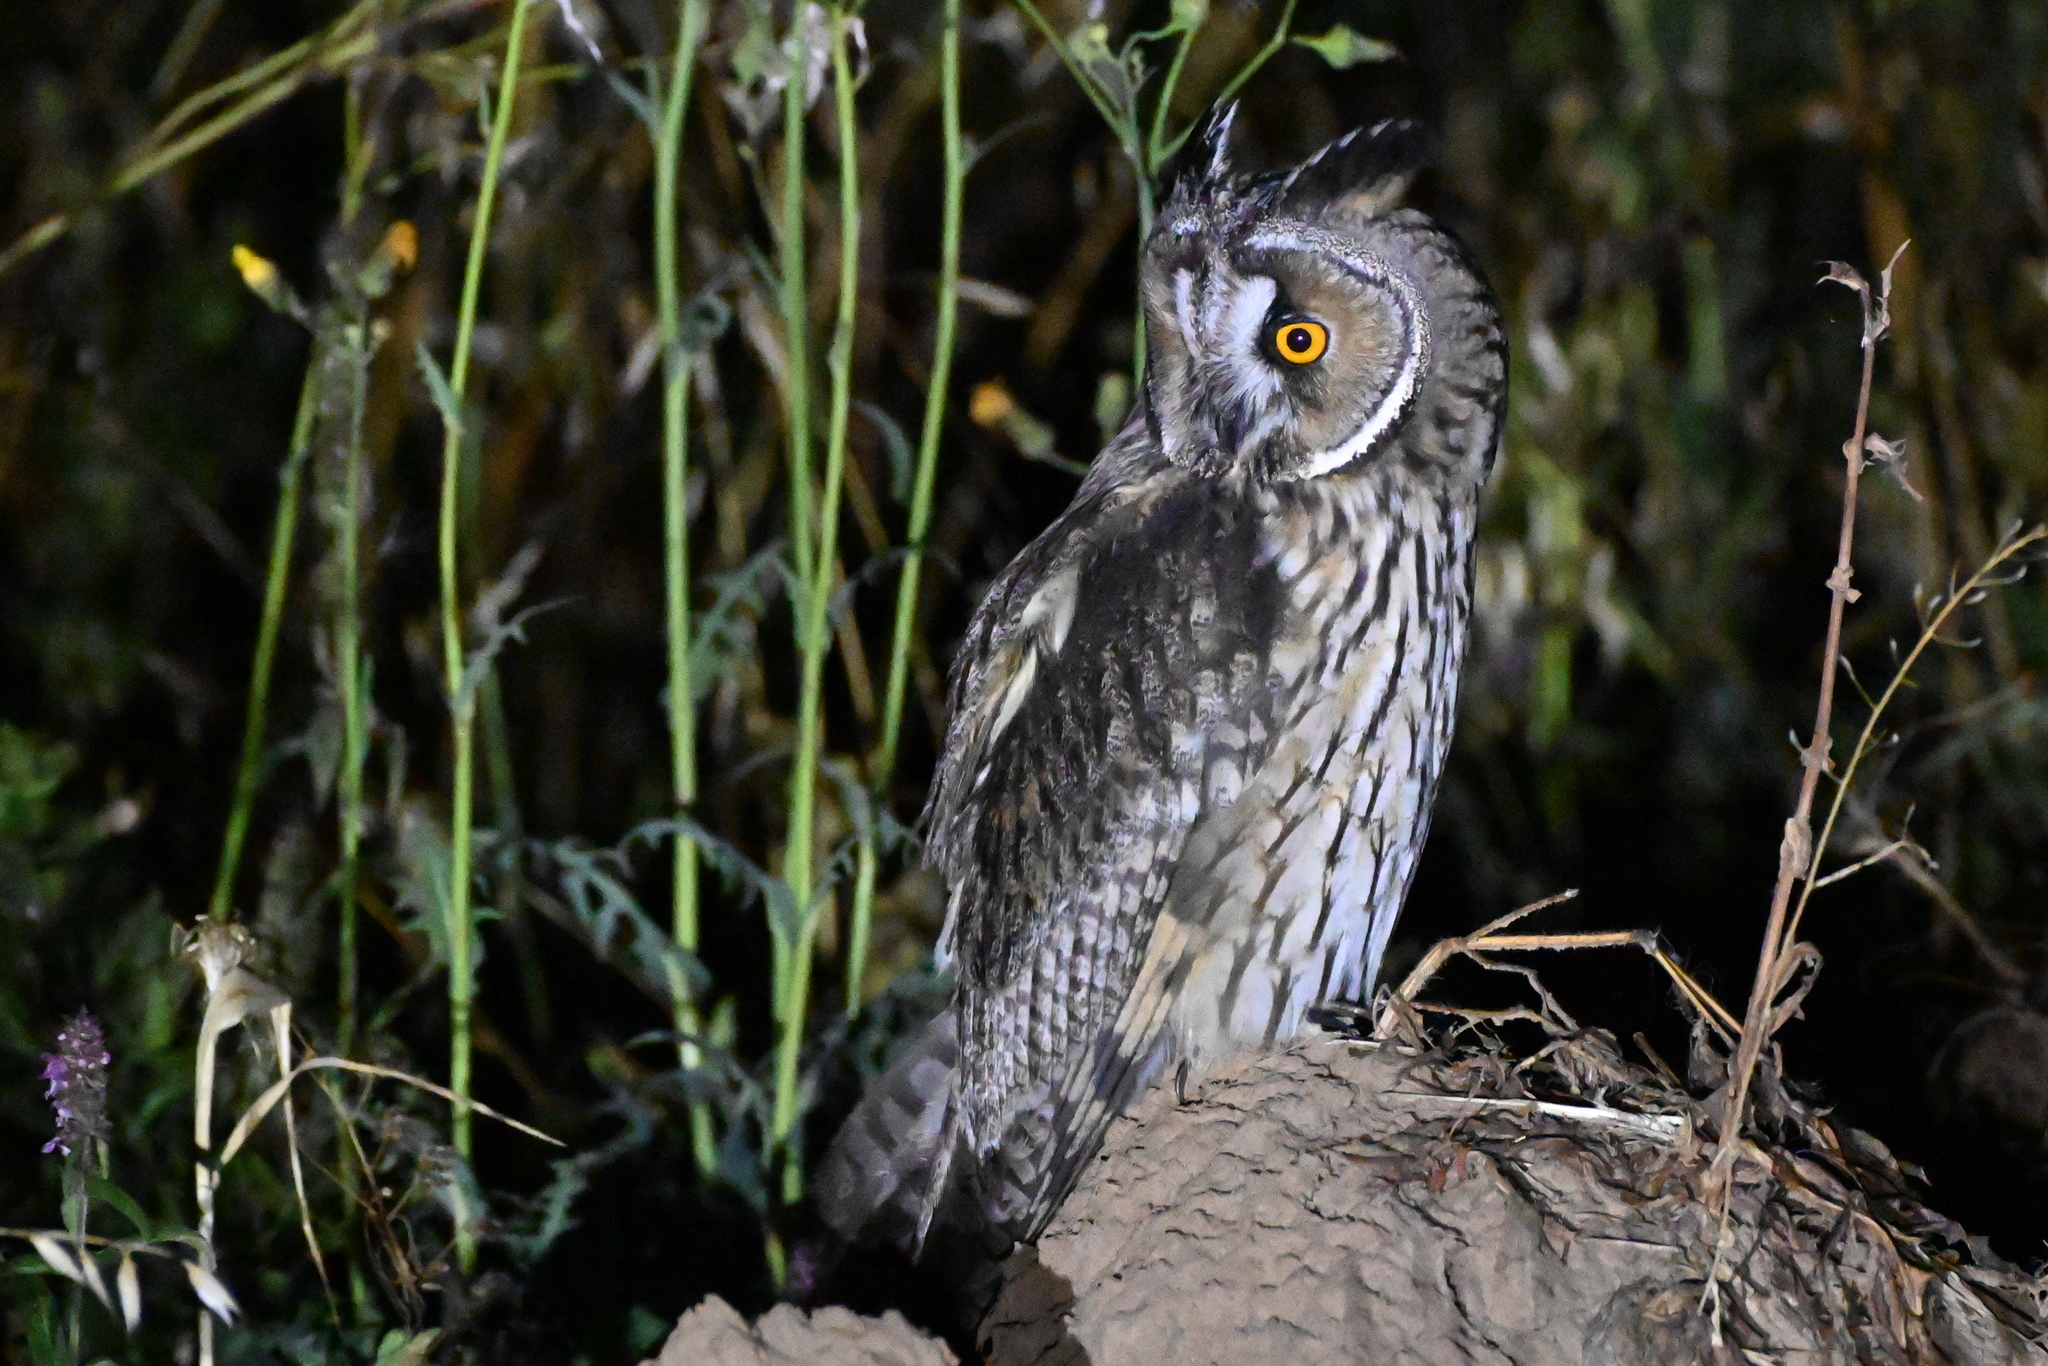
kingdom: Animalia
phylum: Chordata
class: Aves
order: Strigiformes
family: Strigidae
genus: Asio
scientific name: Asio otus
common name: Long-eared owl
